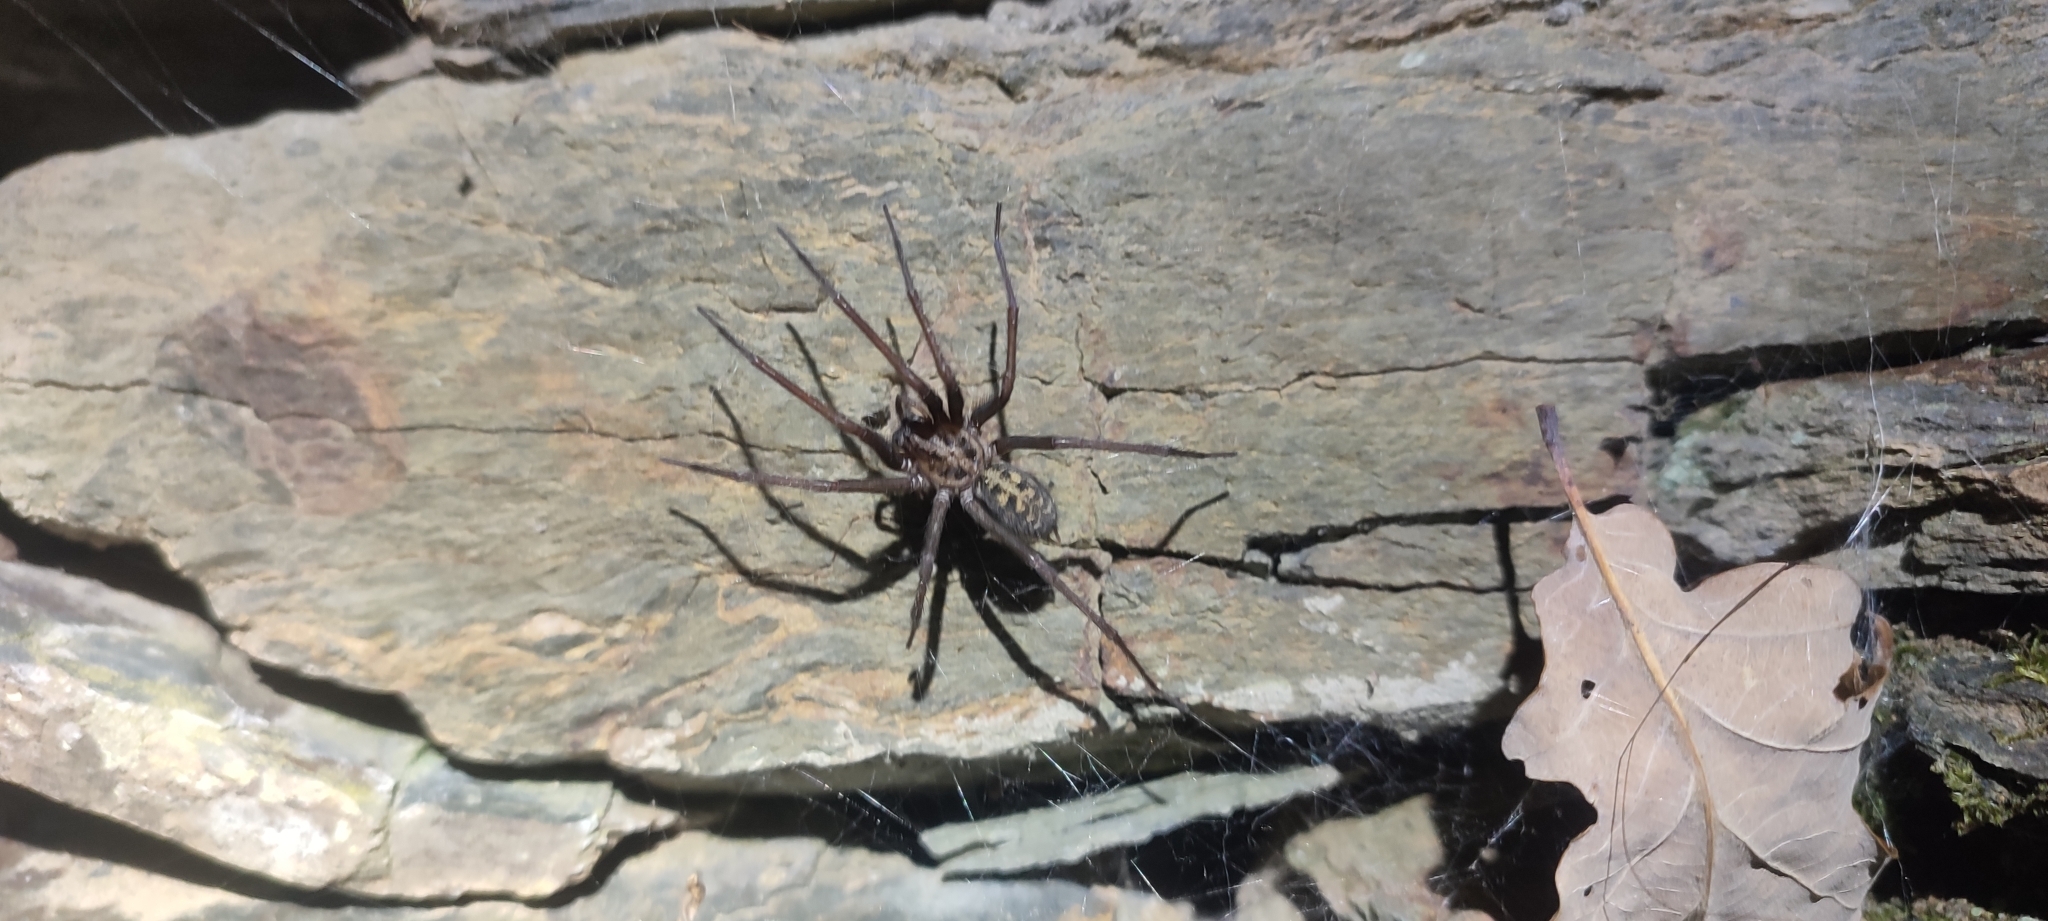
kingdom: Animalia
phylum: Arthropoda
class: Arachnida
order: Araneae
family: Agelenidae
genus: Eratigena
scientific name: Eratigena
